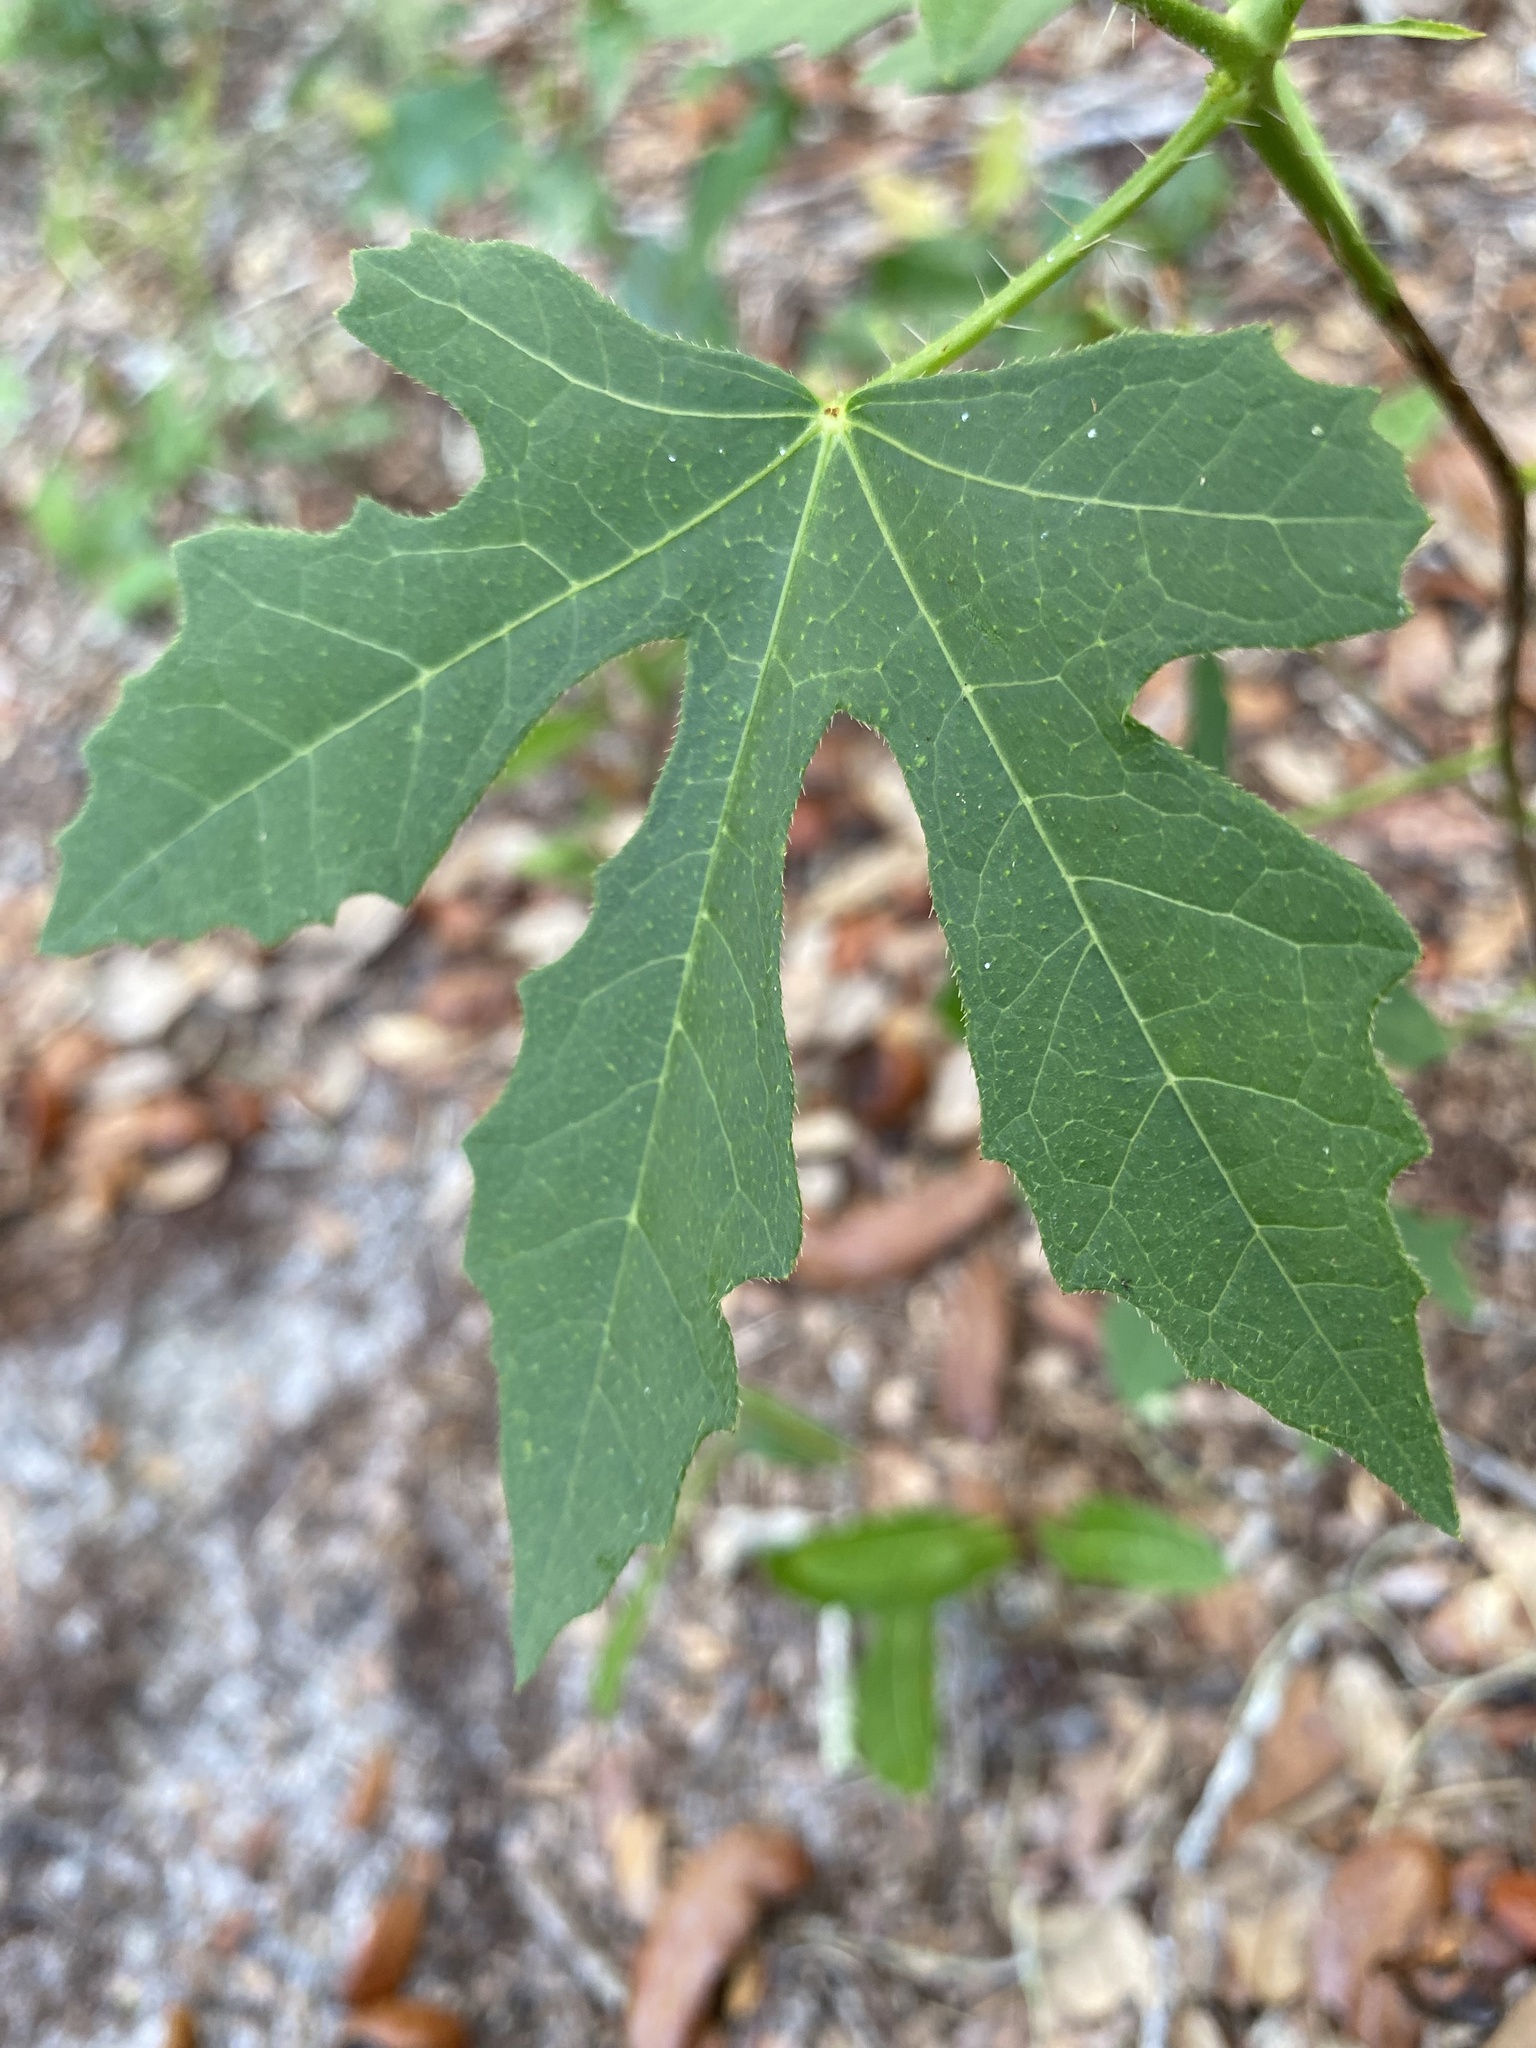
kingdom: Plantae
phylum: Tracheophyta
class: Magnoliopsida
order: Malpighiales
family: Euphorbiaceae
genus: Cnidoscolus
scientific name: Cnidoscolus stimulosus
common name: Bull-nettle
